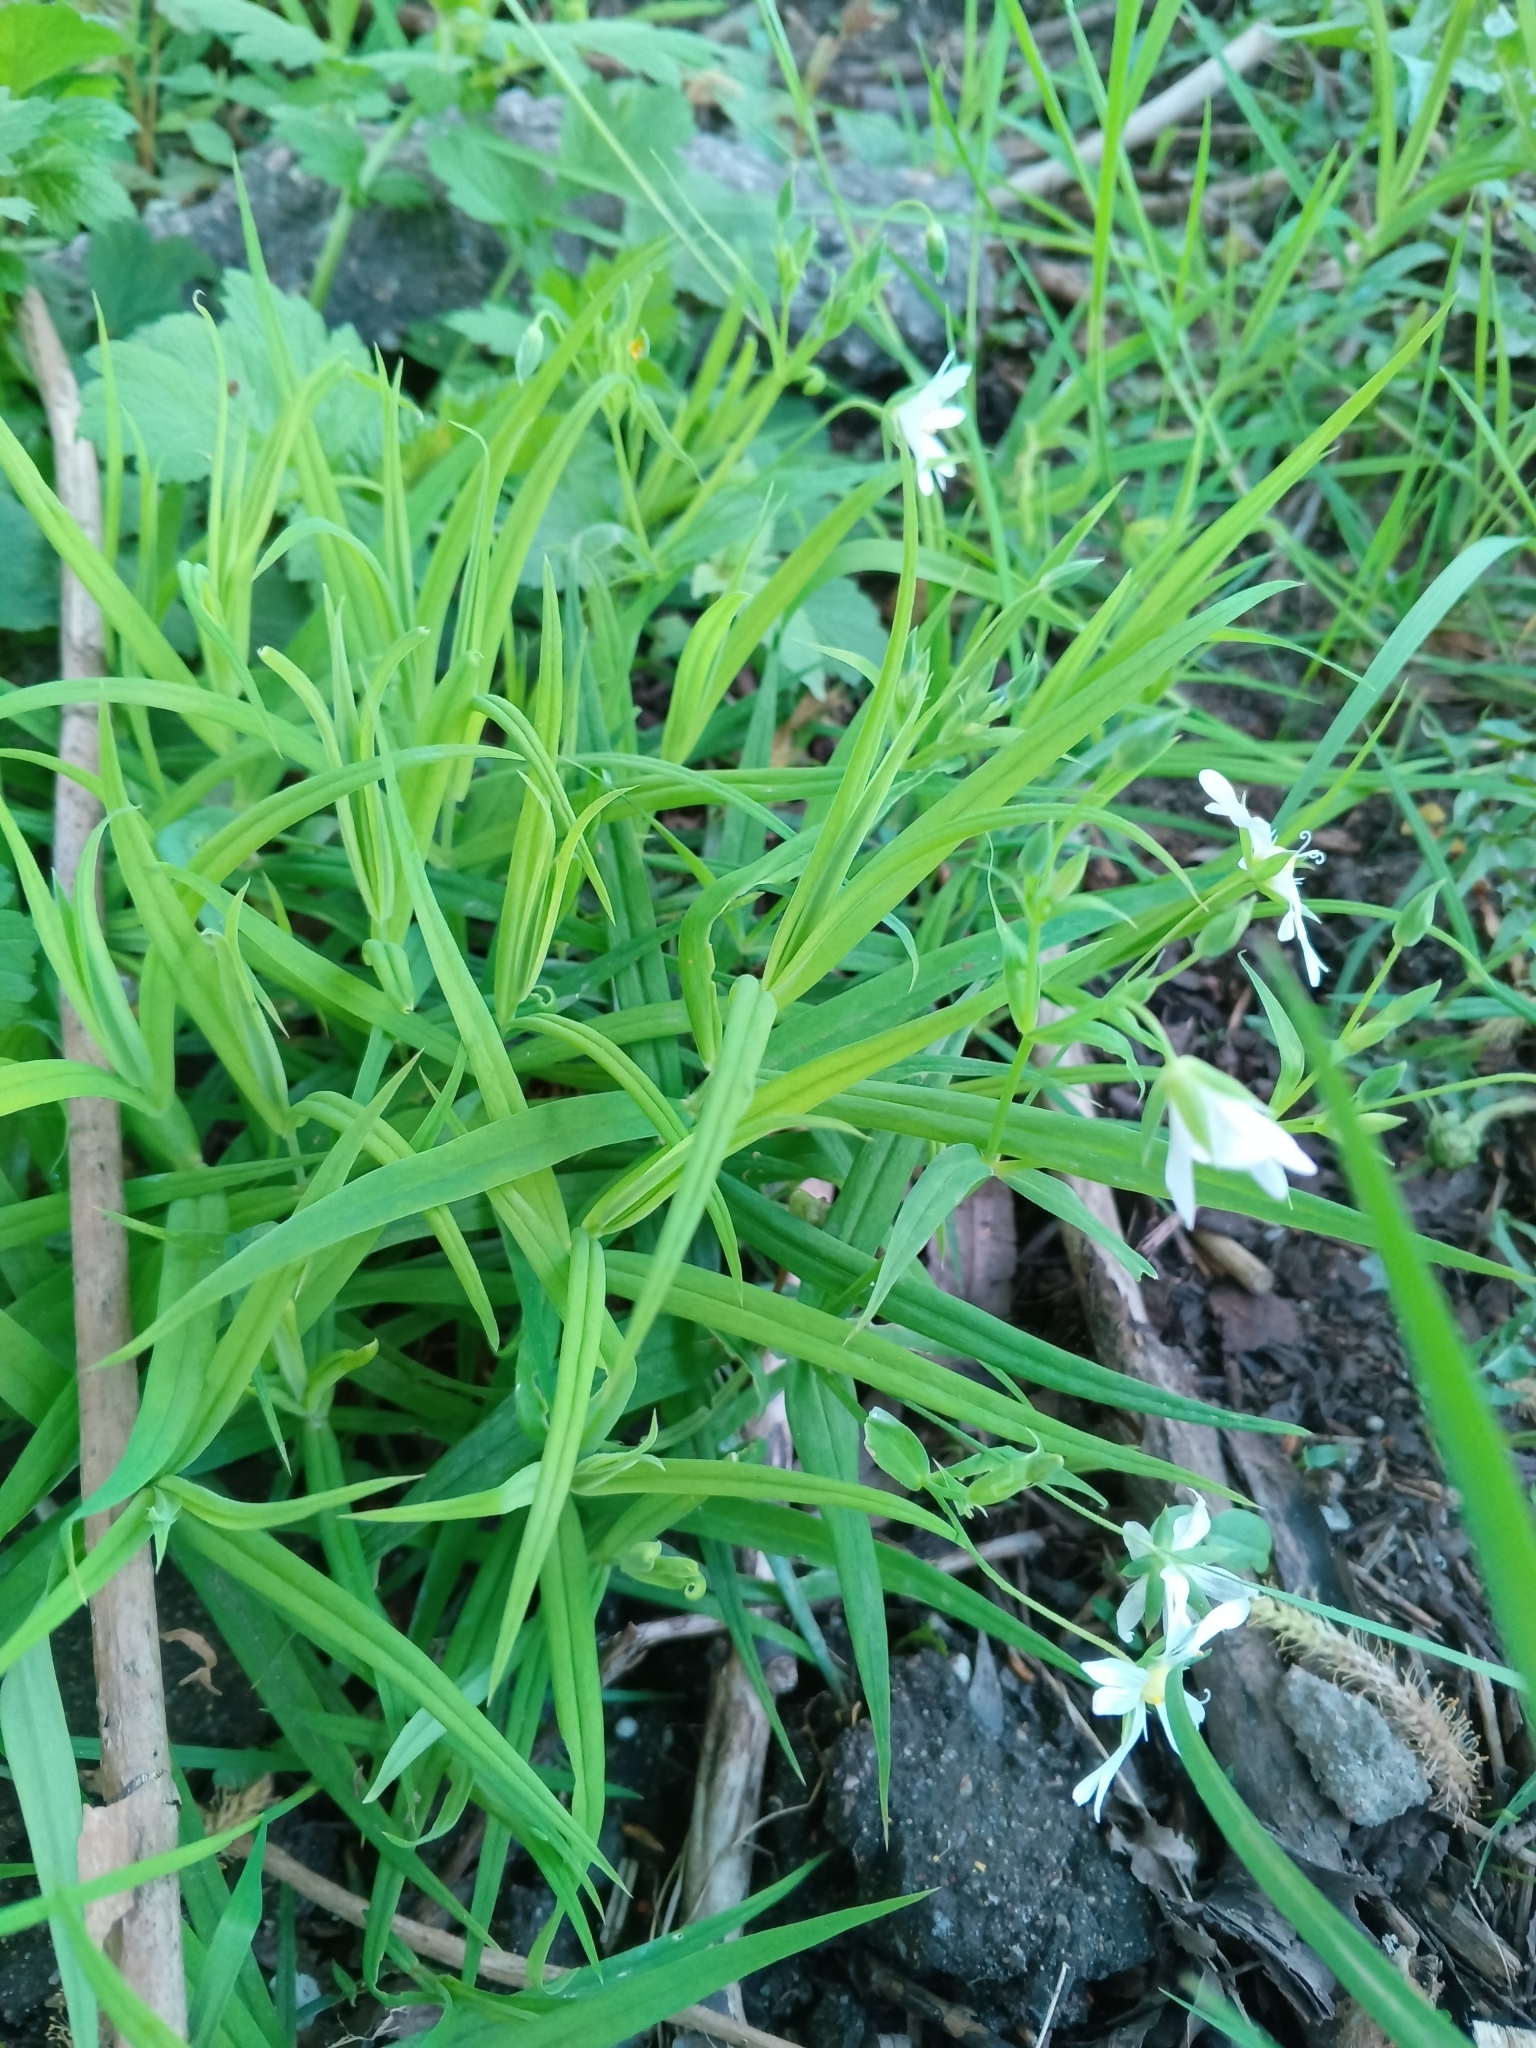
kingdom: Plantae
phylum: Tracheophyta
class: Magnoliopsida
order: Caryophyllales
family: Caryophyllaceae
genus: Rabelera
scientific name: Rabelera holostea
